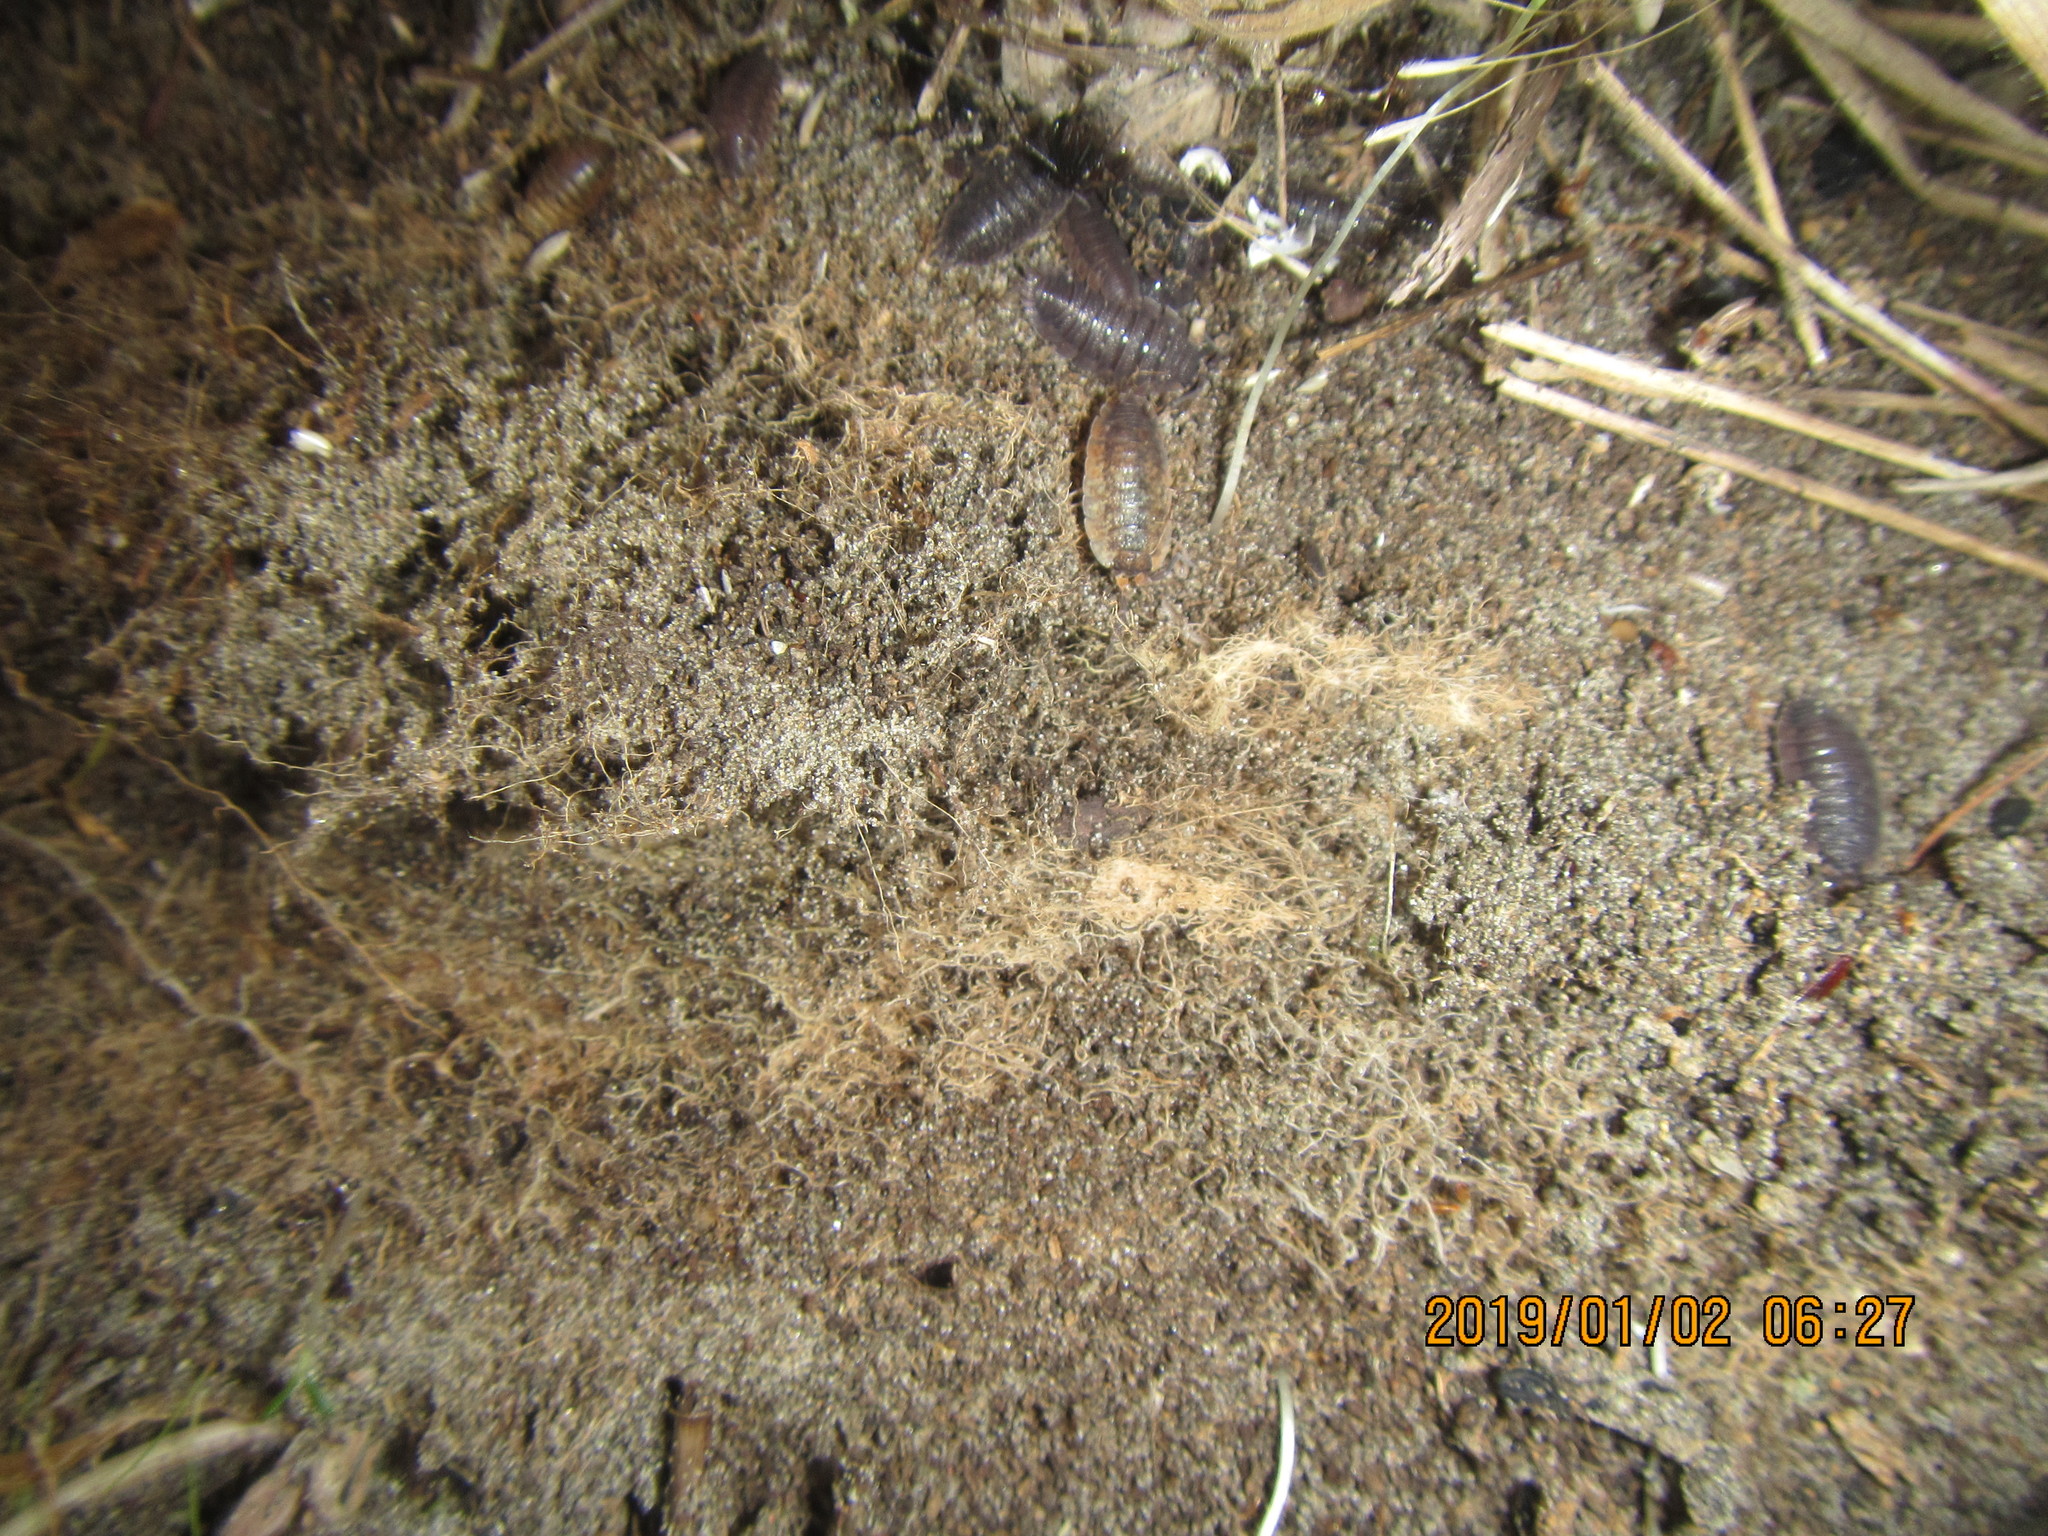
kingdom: Animalia
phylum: Arthropoda
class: Malacostraca
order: Isopoda
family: Porcellionidae
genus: Porcellio
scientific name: Porcellio scaber
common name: Common rough woodlouse
